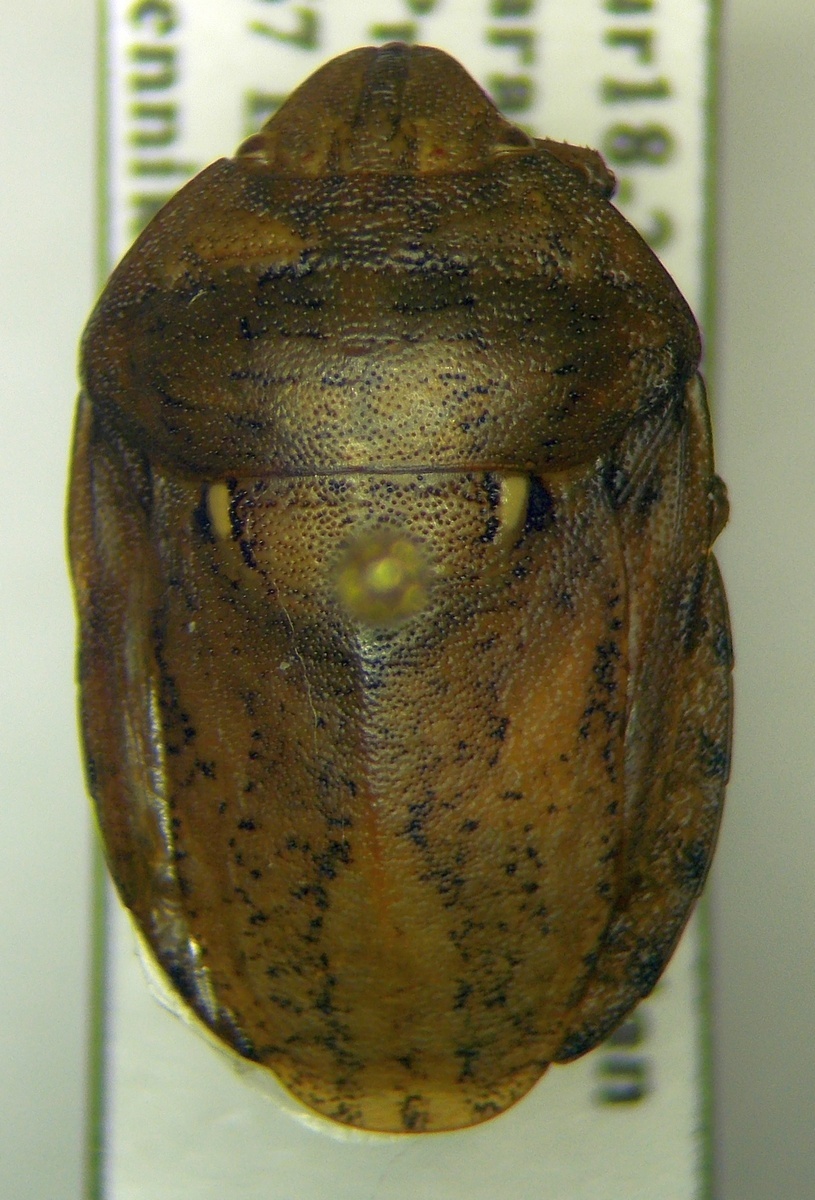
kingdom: Animalia
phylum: Arthropoda
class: Insecta
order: Hemiptera
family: Scutelleridae
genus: Eurygaster
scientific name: Eurygaster integriceps
